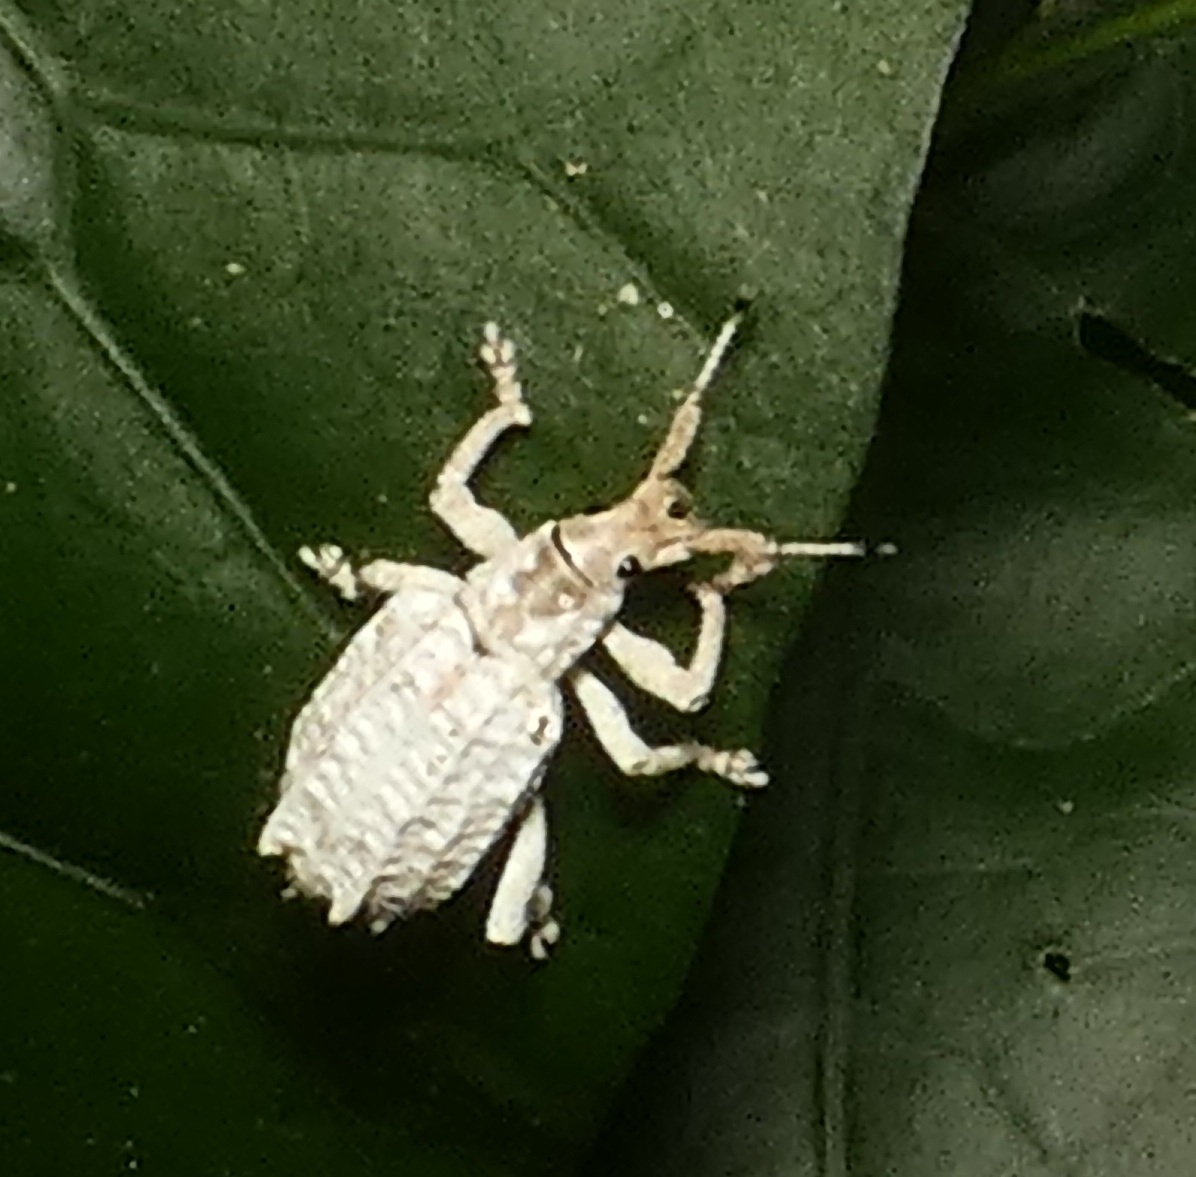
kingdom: Animalia
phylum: Arthropoda
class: Insecta
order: Coleoptera
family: Curculionidae
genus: Compsus
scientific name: Compsus niveus
